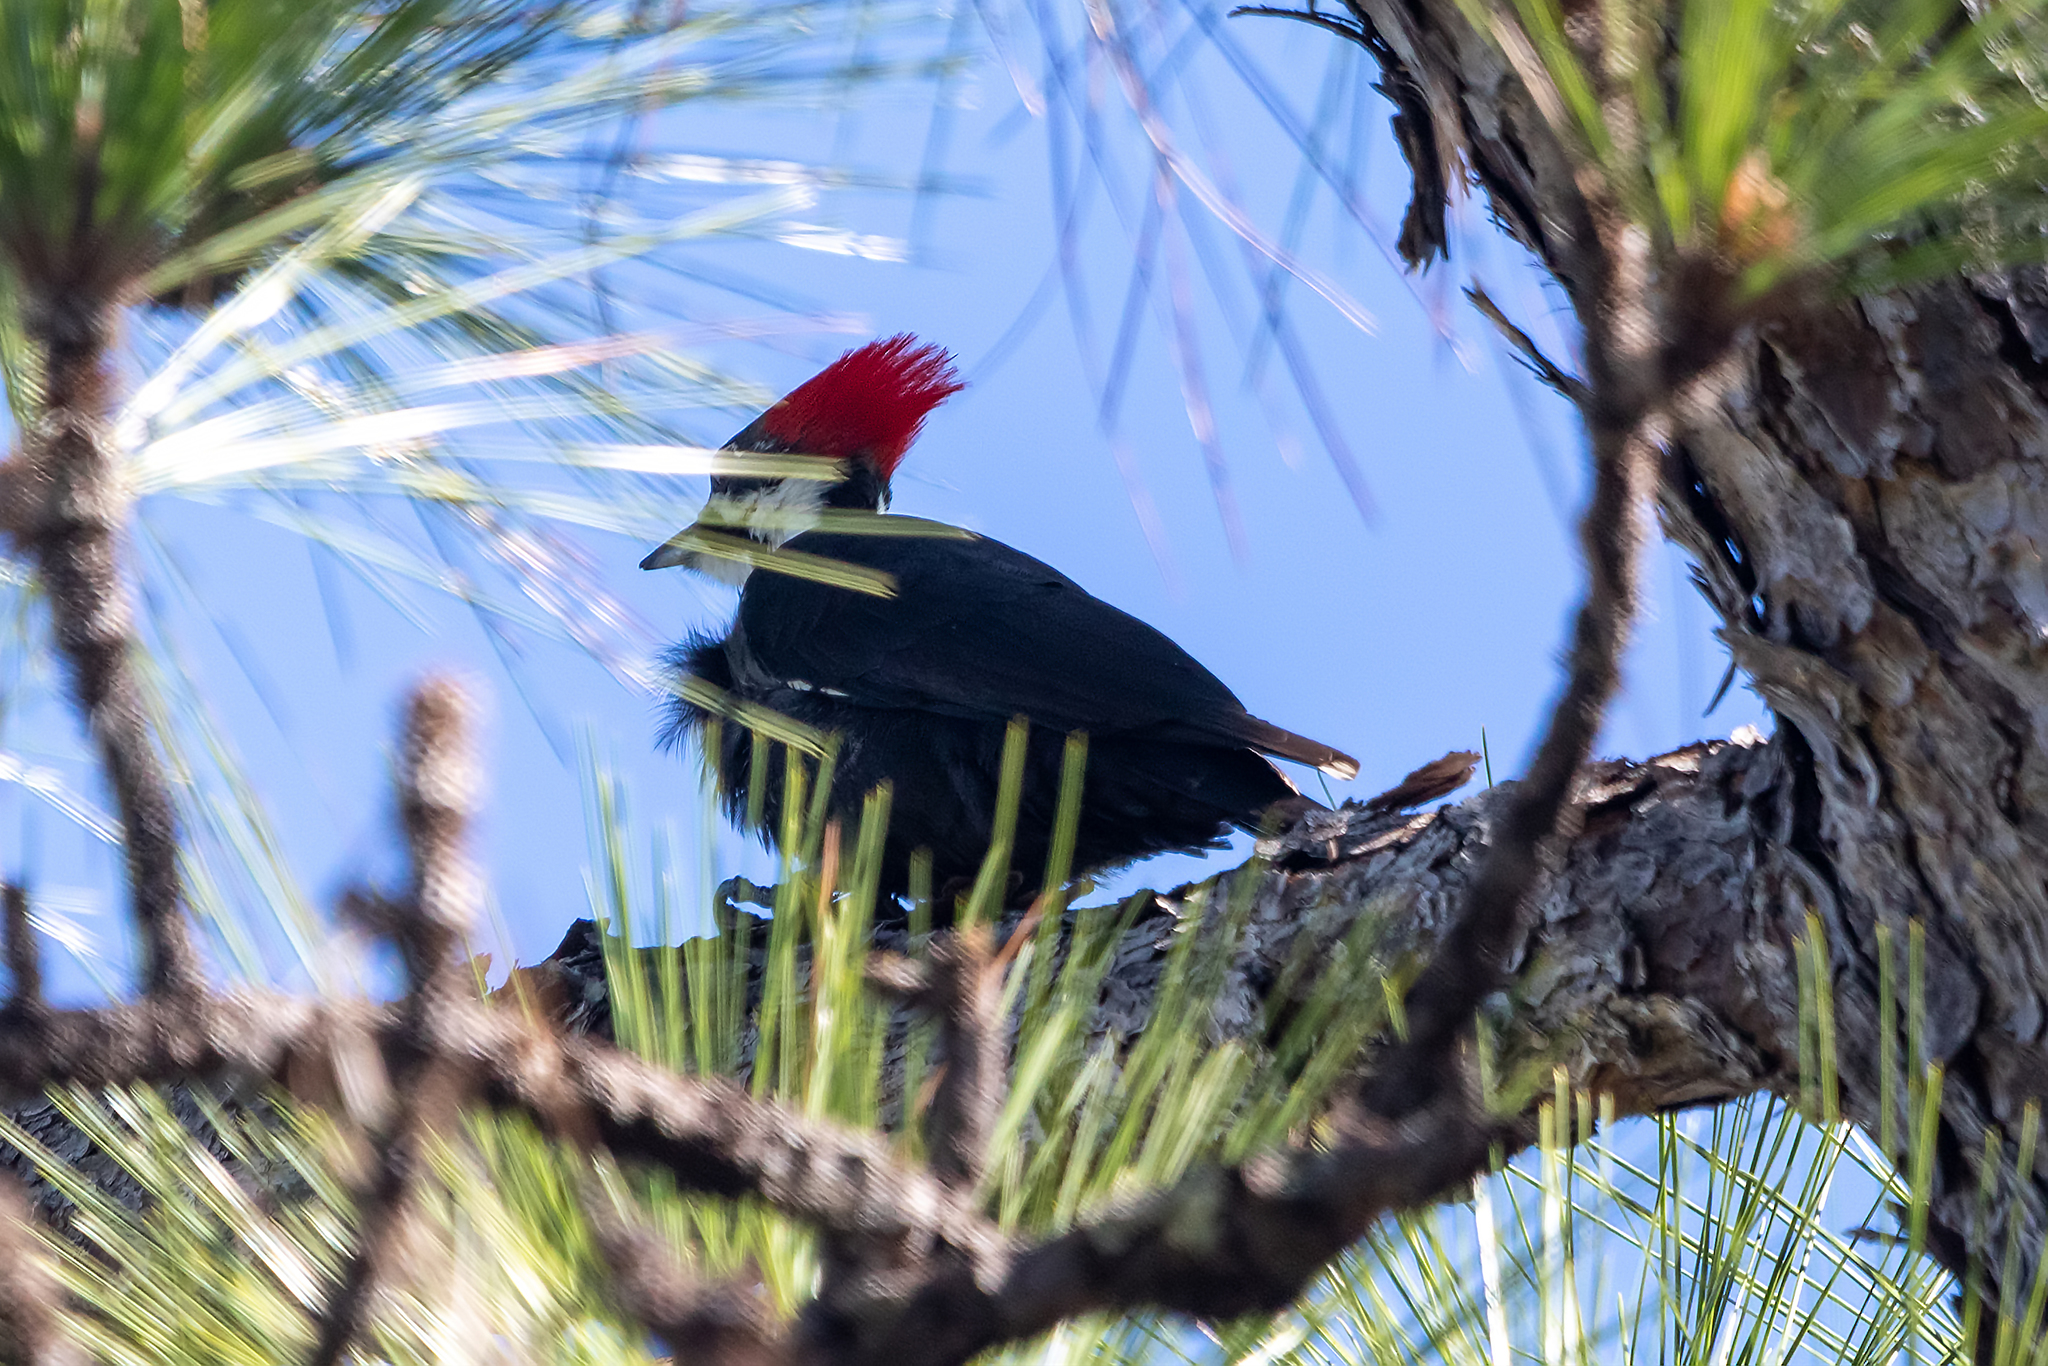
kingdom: Animalia
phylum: Chordata
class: Aves
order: Piciformes
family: Picidae
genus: Dryocopus
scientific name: Dryocopus pileatus
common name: Pileated woodpecker
